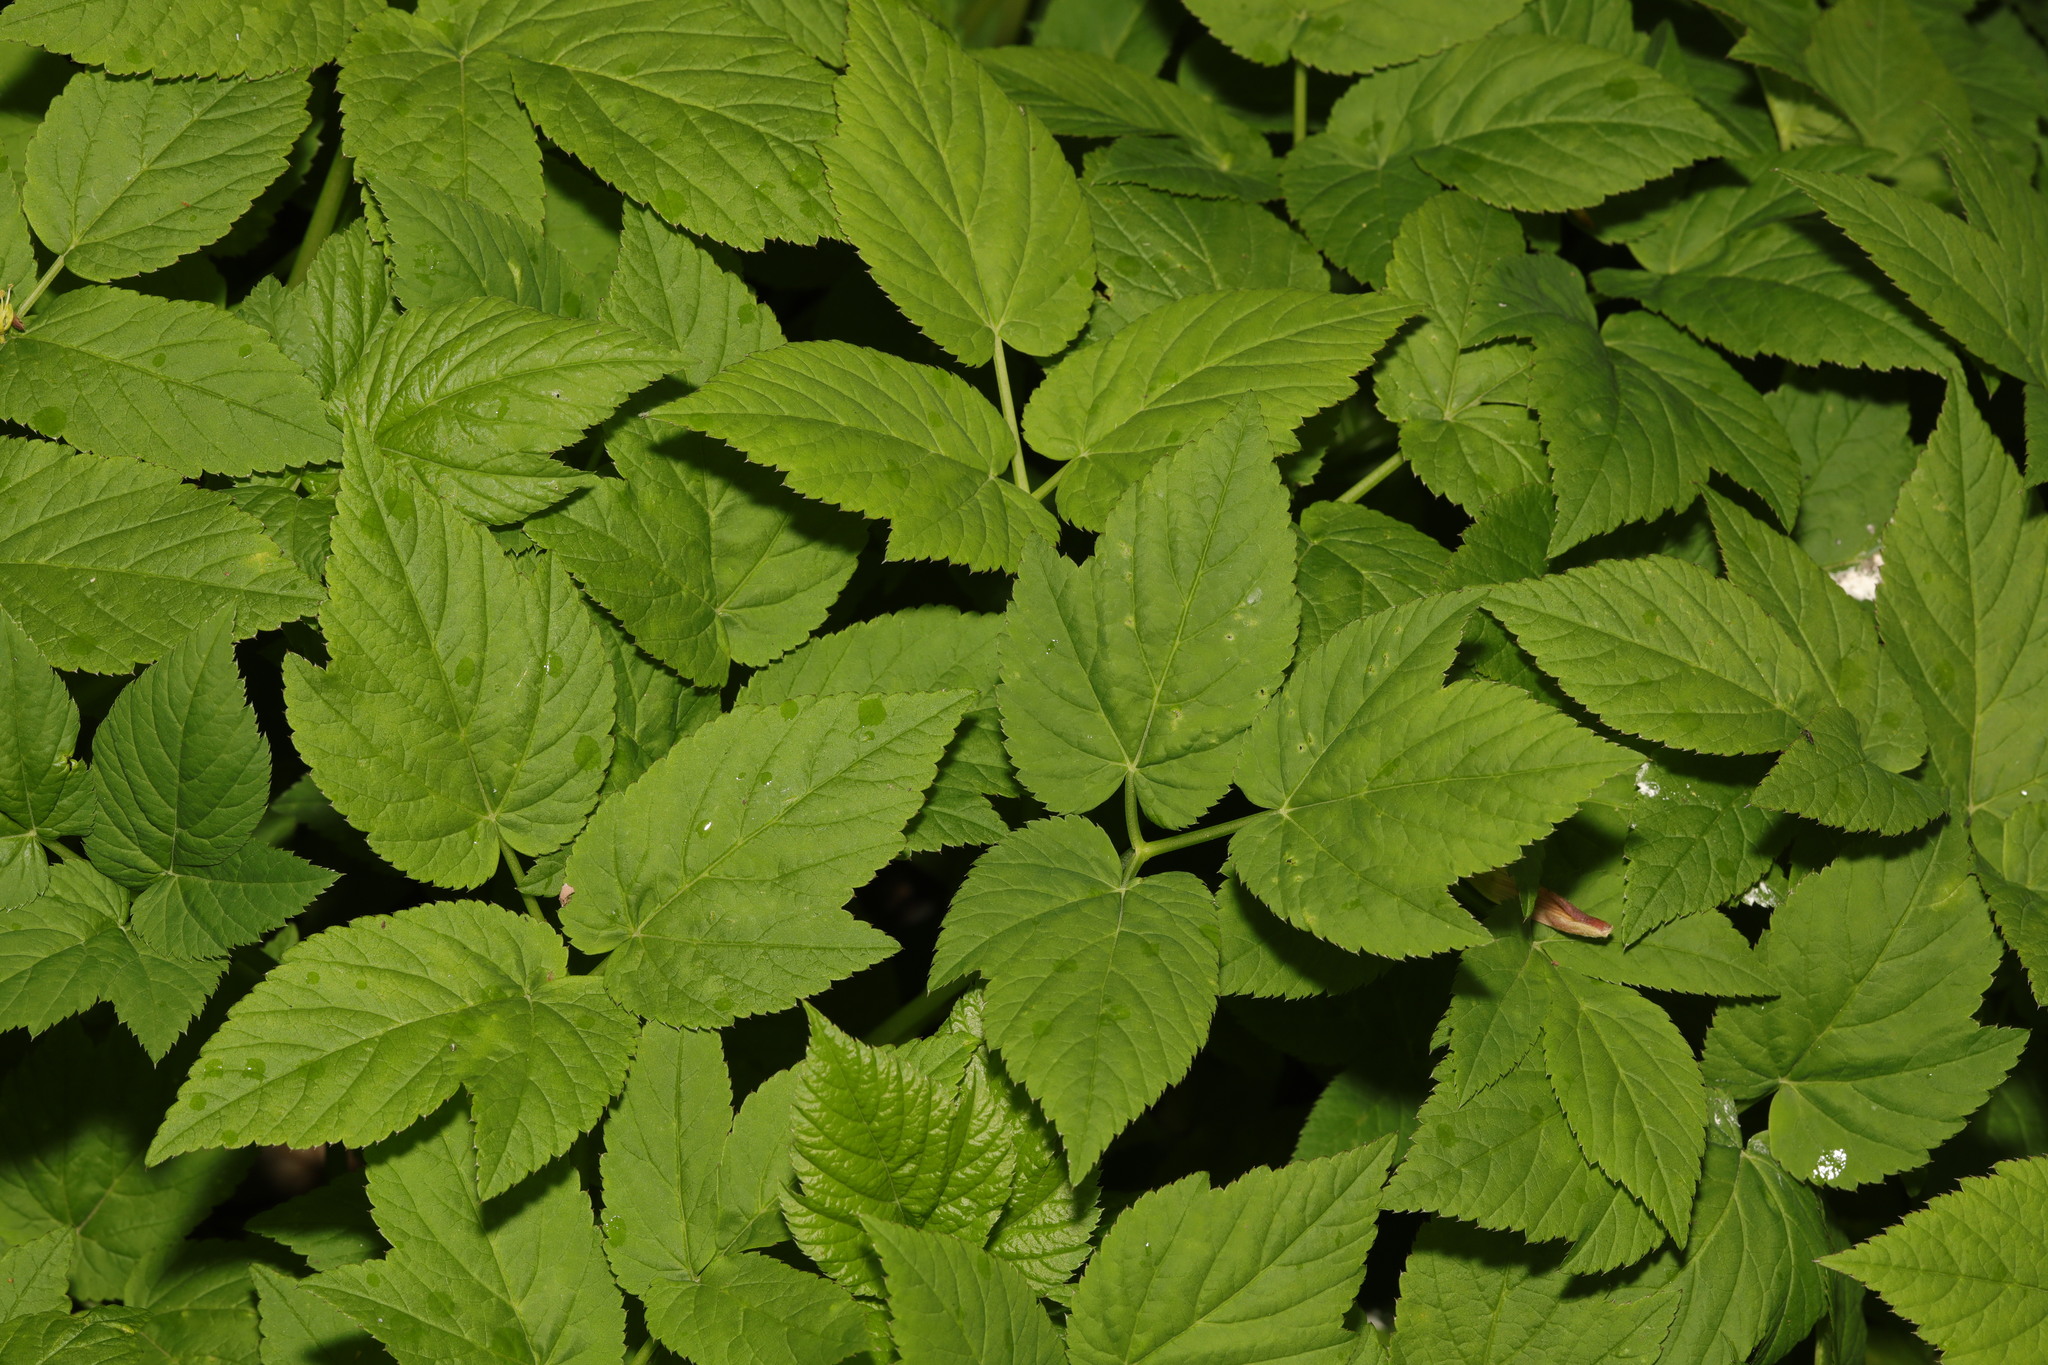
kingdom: Plantae
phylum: Tracheophyta
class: Magnoliopsida
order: Apiales
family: Apiaceae
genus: Aegopodium
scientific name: Aegopodium podagraria
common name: Ground-elder
